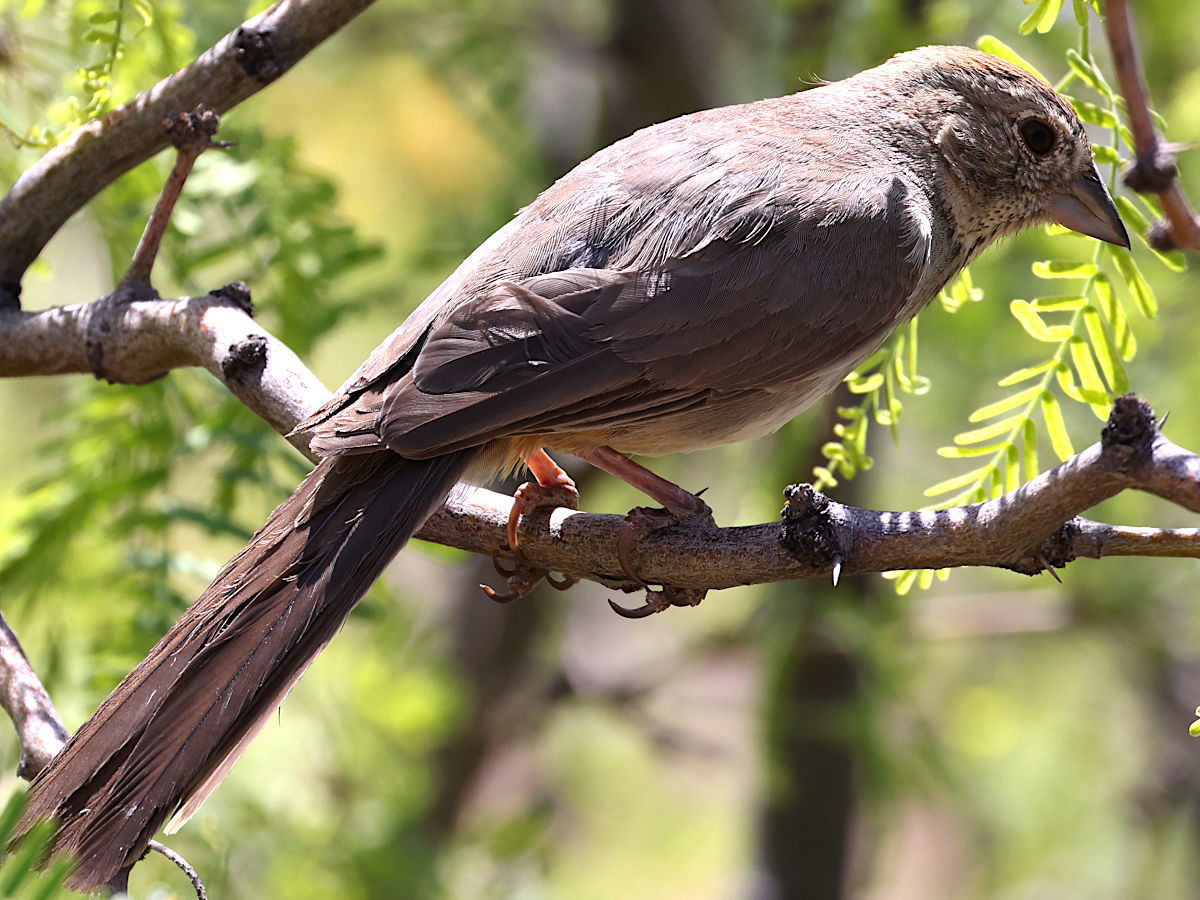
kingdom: Animalia
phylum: Chordata
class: Aves
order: Passeriformes
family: Passerellidae
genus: Melozone
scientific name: Melozone fusca
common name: Canyon towhee
